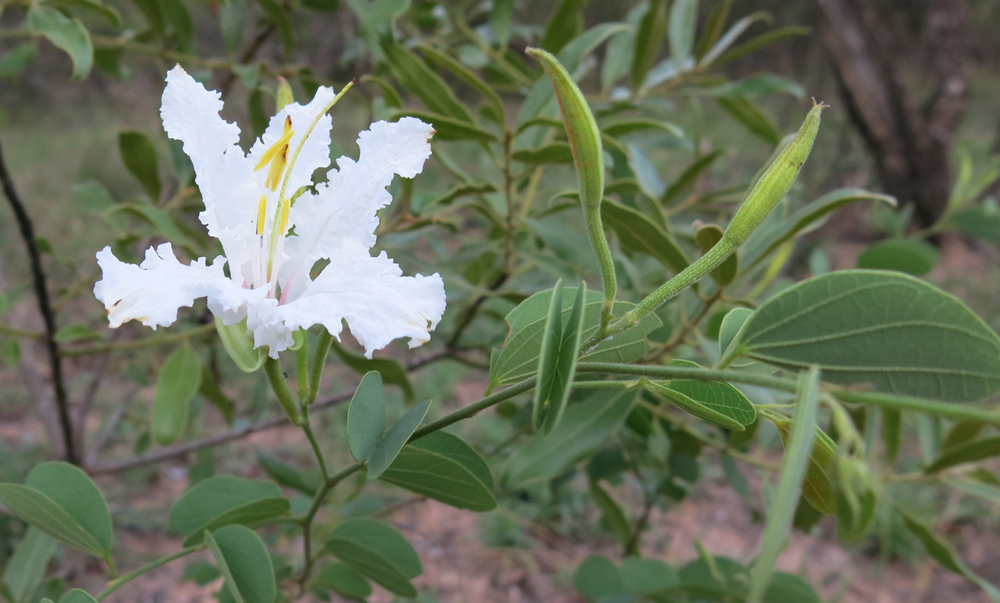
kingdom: Plantae
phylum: Tracheophyta
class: Magnoliopsida
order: Fabales
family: Fabaceae
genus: Bauhinia
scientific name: Bauhinia macrantha
